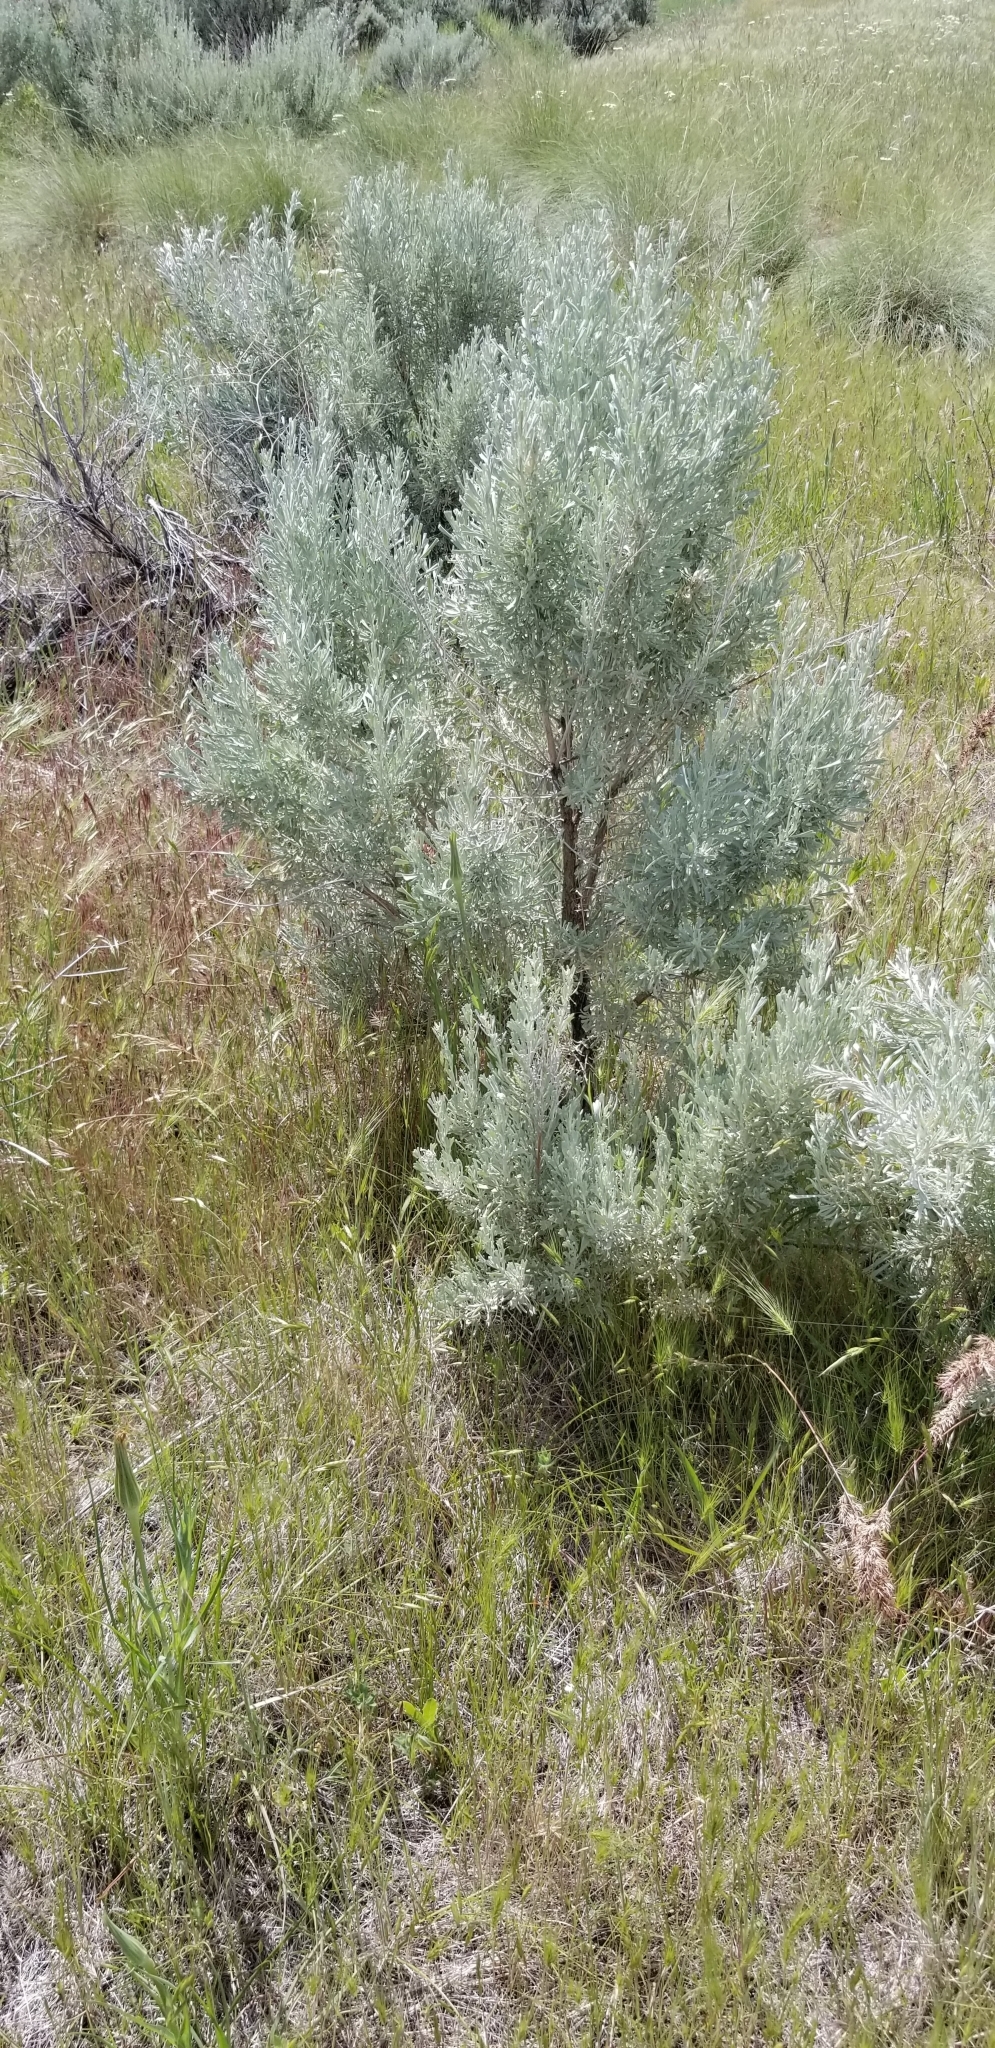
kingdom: Plantae
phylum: Tracheophyta
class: Magnoliopsida
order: Asterales
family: Asteraceae
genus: Artemisia
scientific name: Artemisia tridentata
